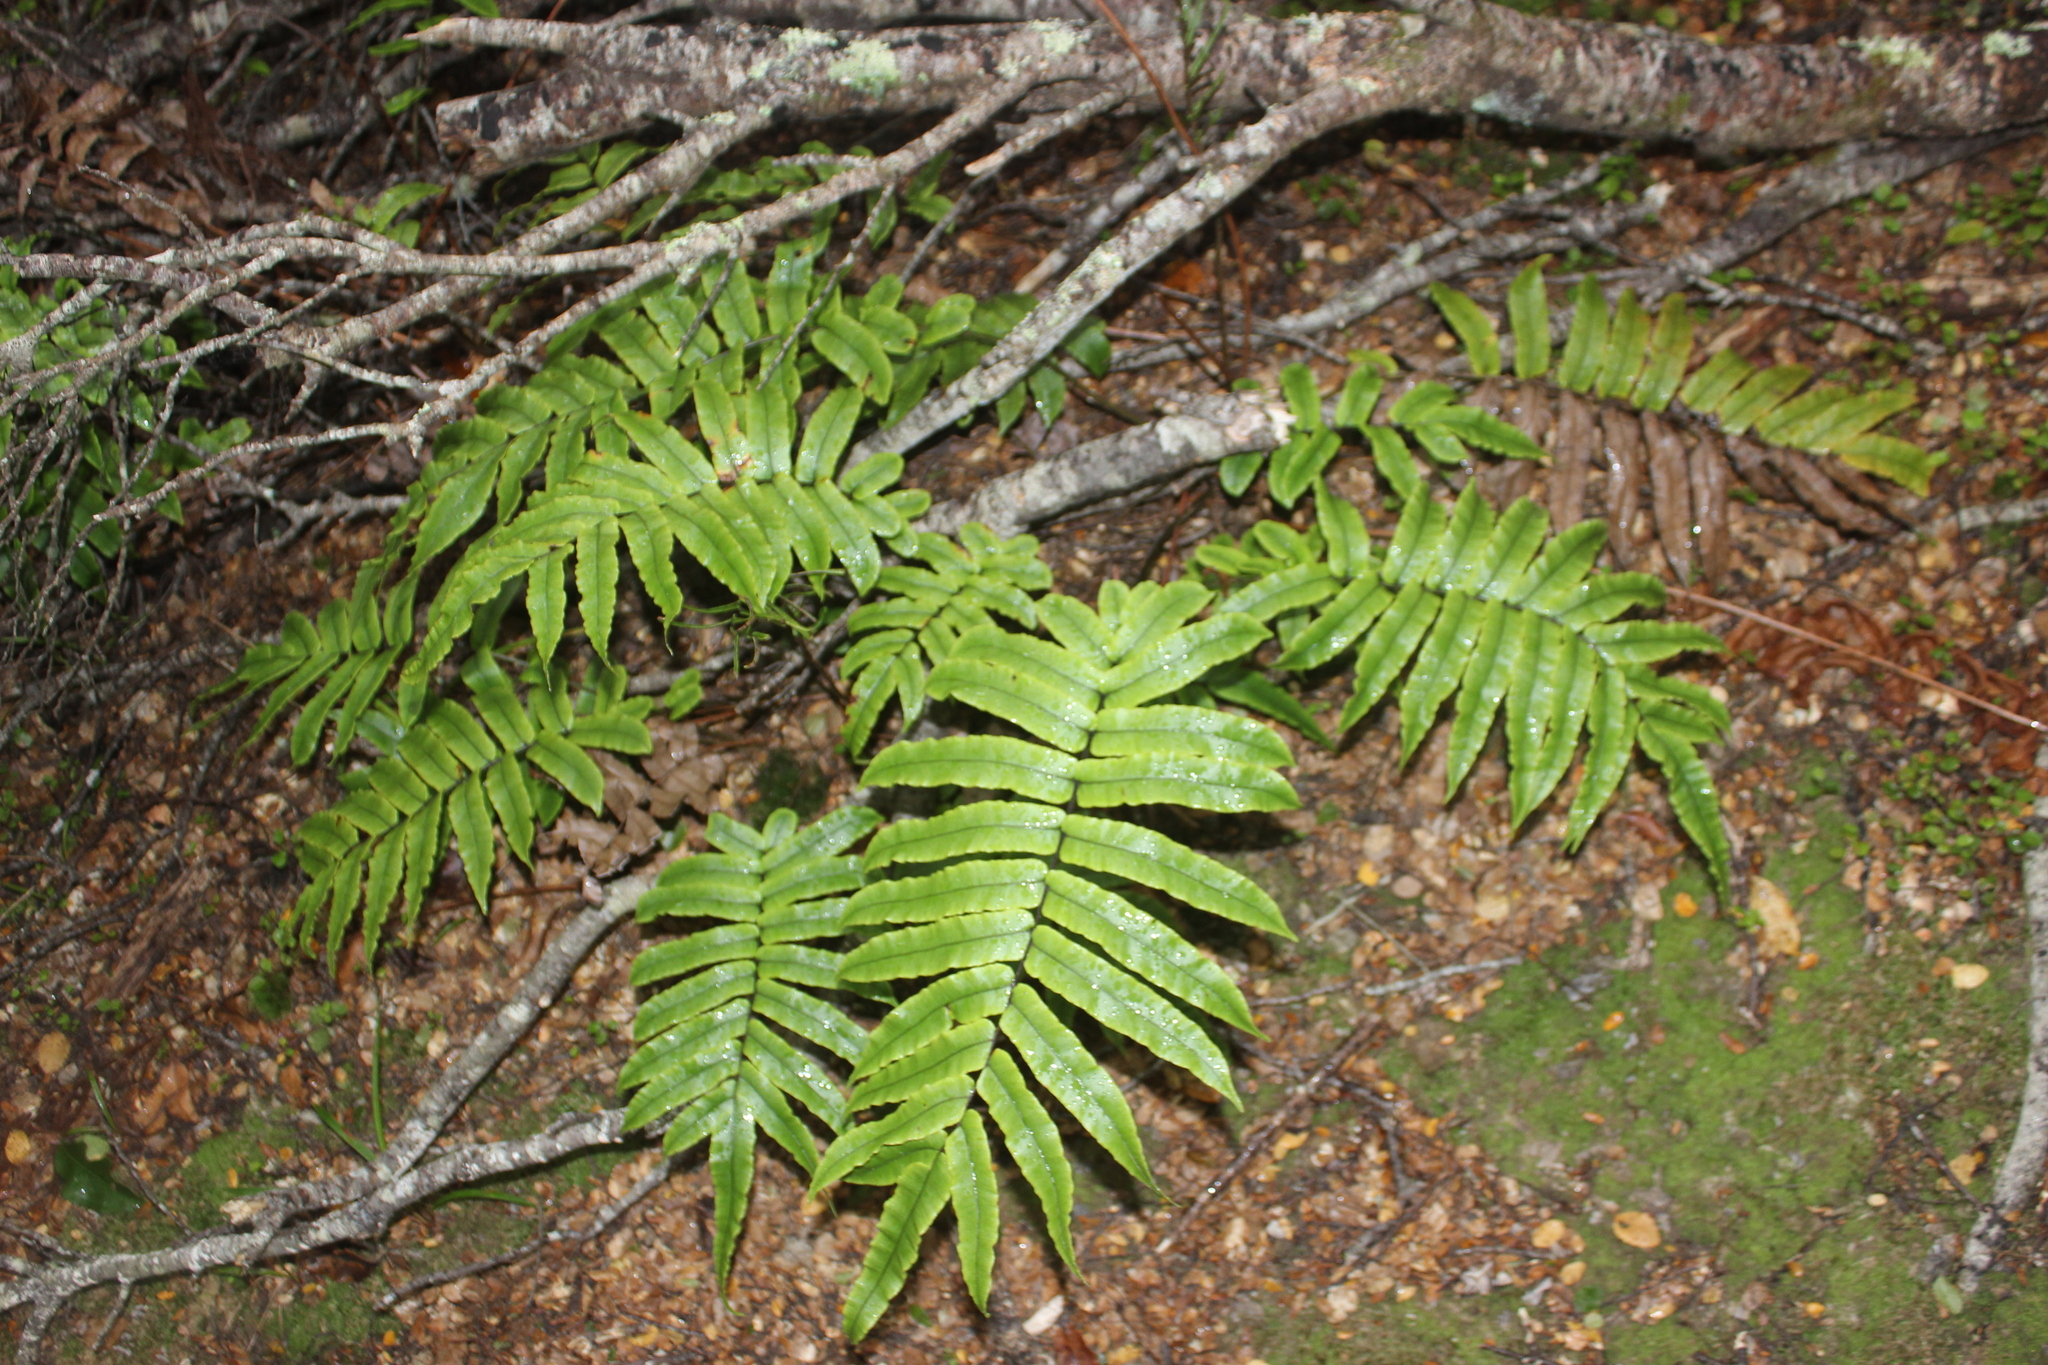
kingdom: Plantae
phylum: Tracheophyta
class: Polypodiopsida
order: Polypodiales
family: Blechnaceae
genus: Parablechnum
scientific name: Parablechnum procerum
